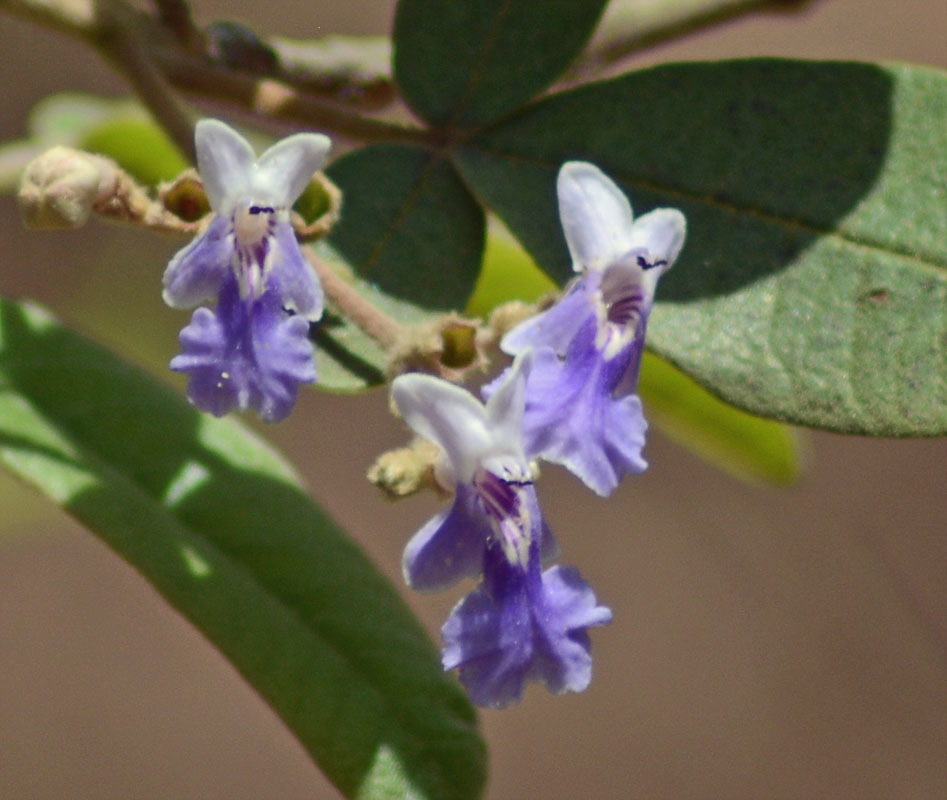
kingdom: Plantae
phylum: Tracheophyta
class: Magnoliopsida
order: Lamiales
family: Lamiaceae
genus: Vitex
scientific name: Vitex mollis
